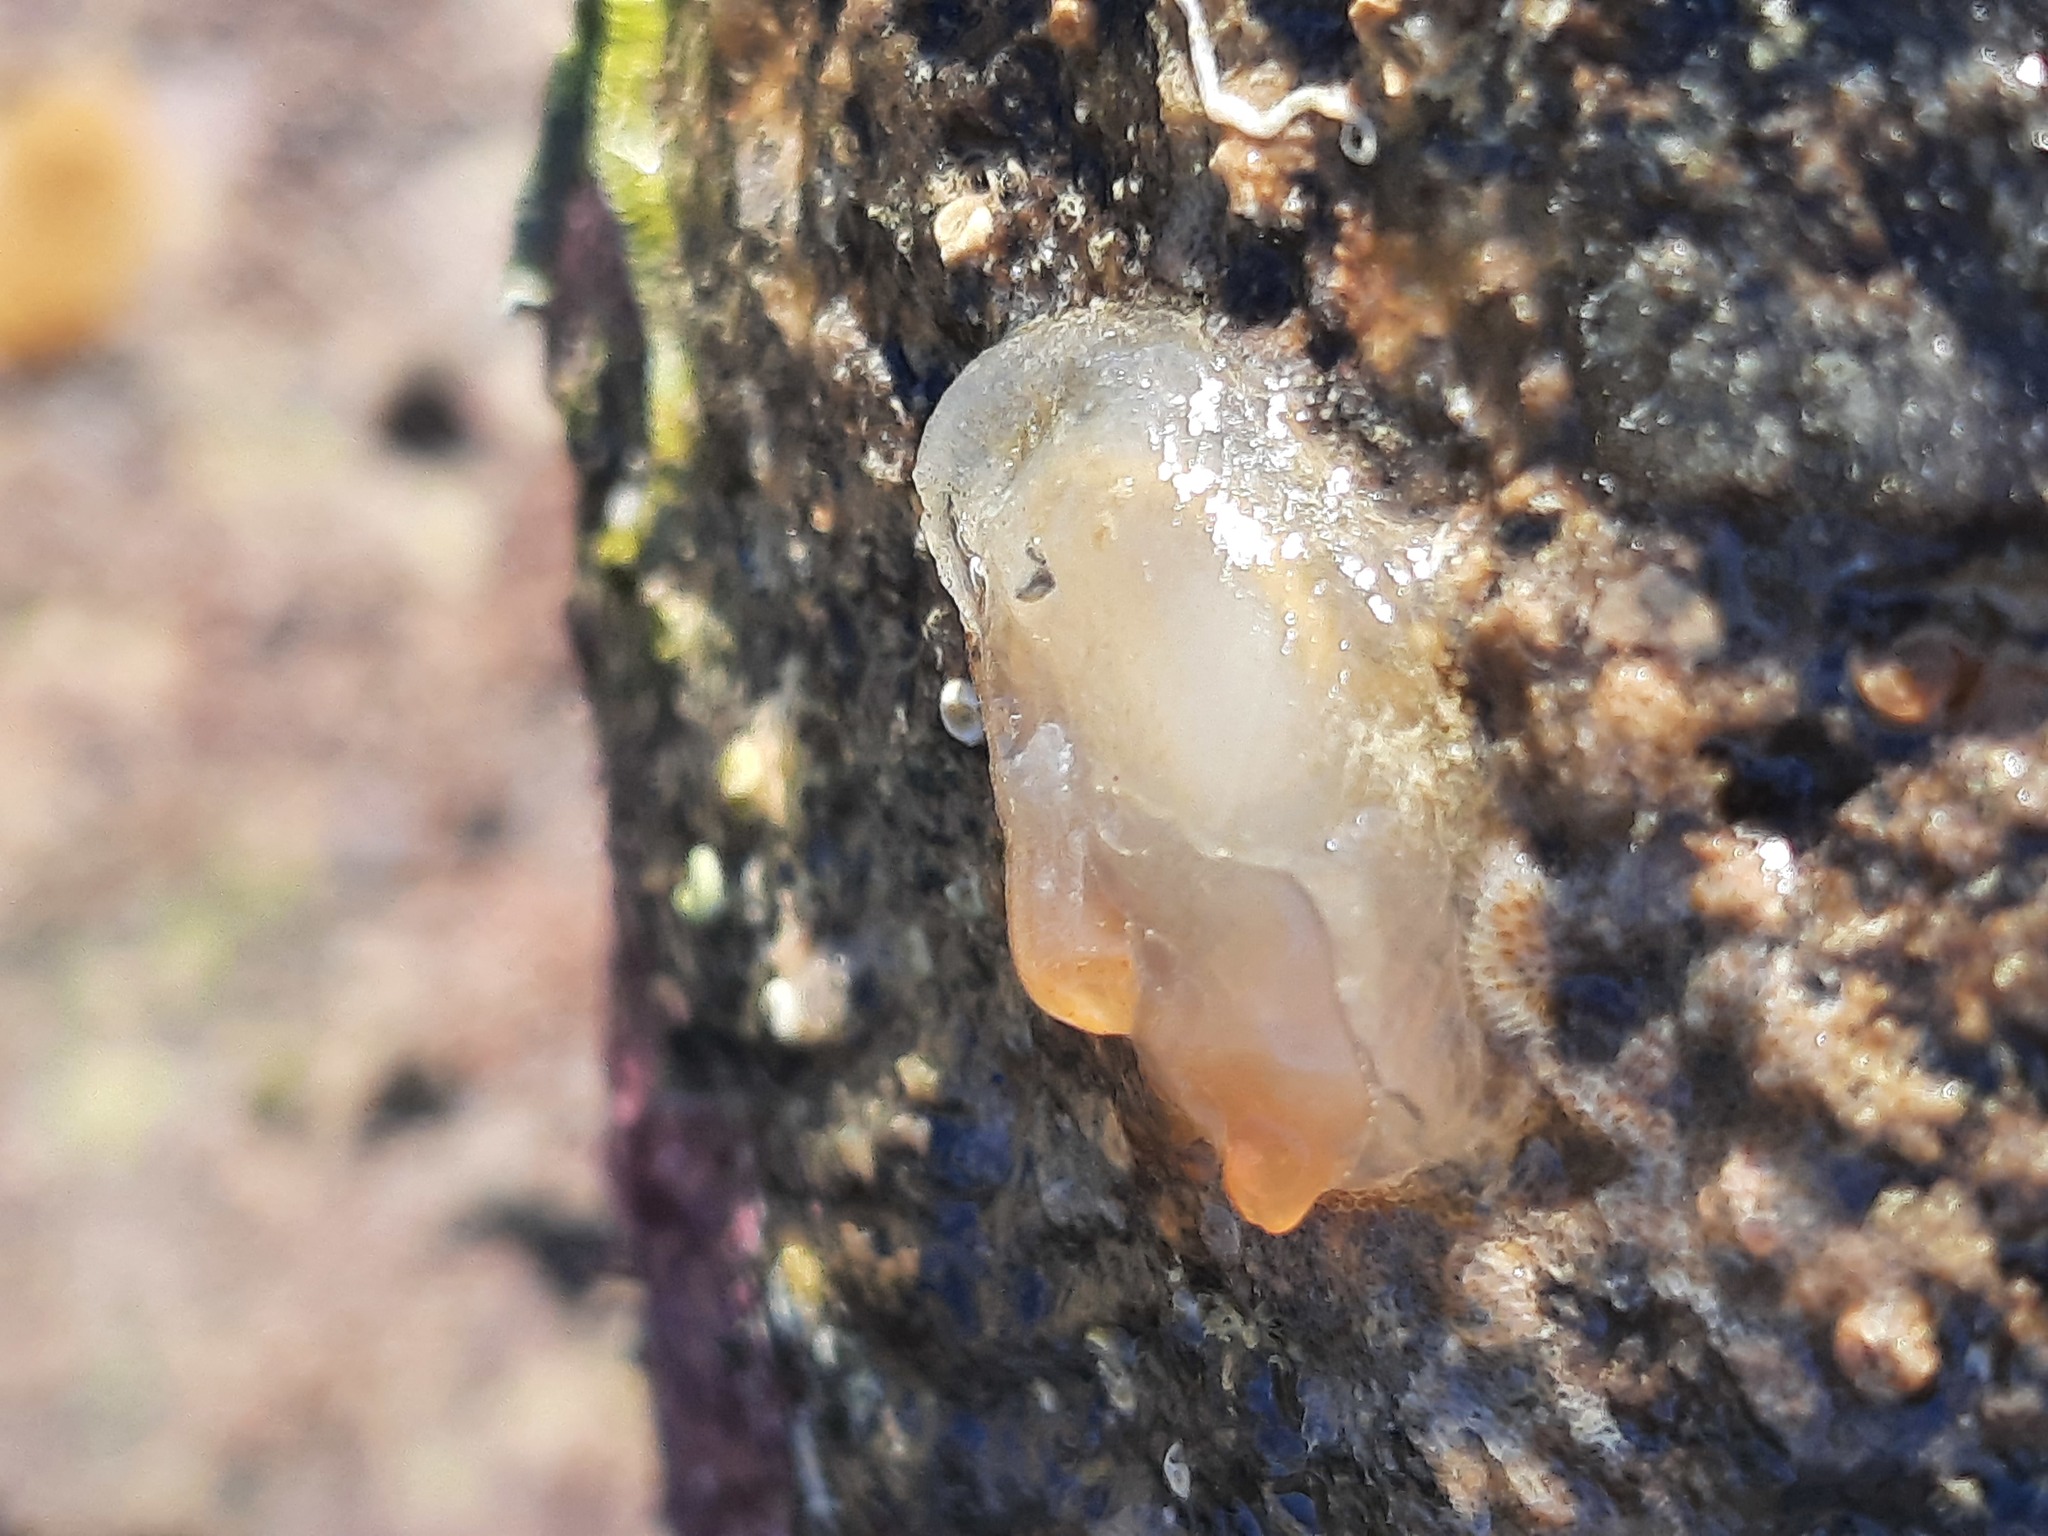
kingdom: Animalia
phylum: Chordata
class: Ascidiacea
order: Phlebobranchia
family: Corellidae
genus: Corella
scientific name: Corella eumyota
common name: Orange-tipped sea squirt
